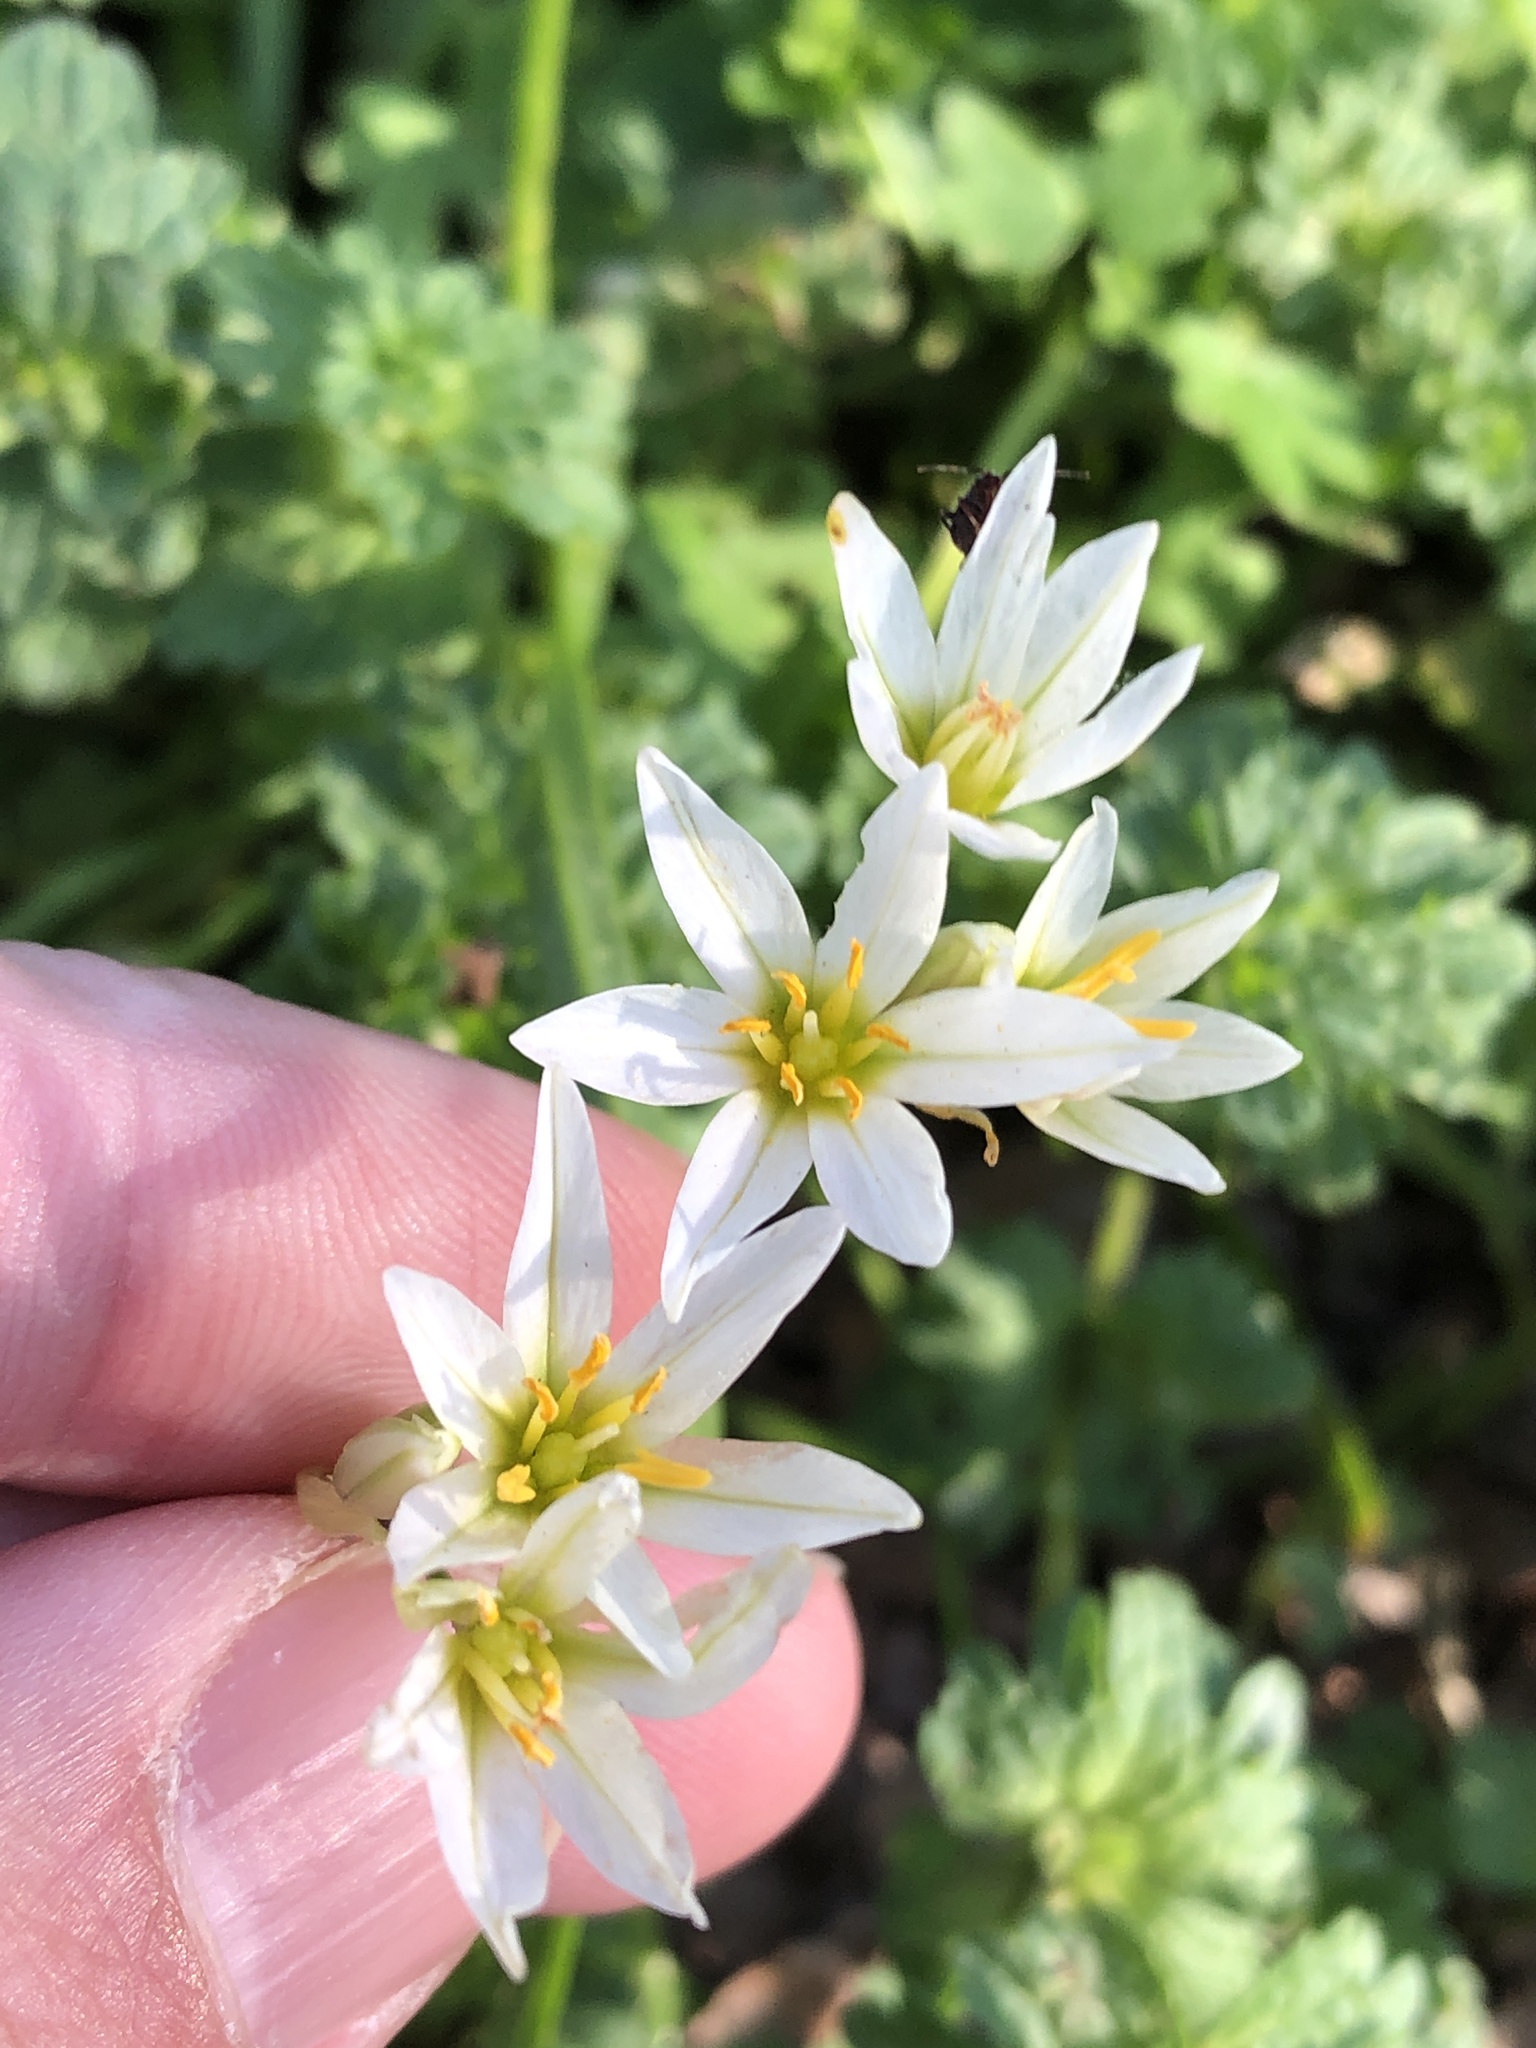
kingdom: Plantae
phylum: Tracheophyta
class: Liliopsida
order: Asparagales
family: Amaryllidaceae
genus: Nothoscordum
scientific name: Nothoscordum bivalve
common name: Crow-poison
